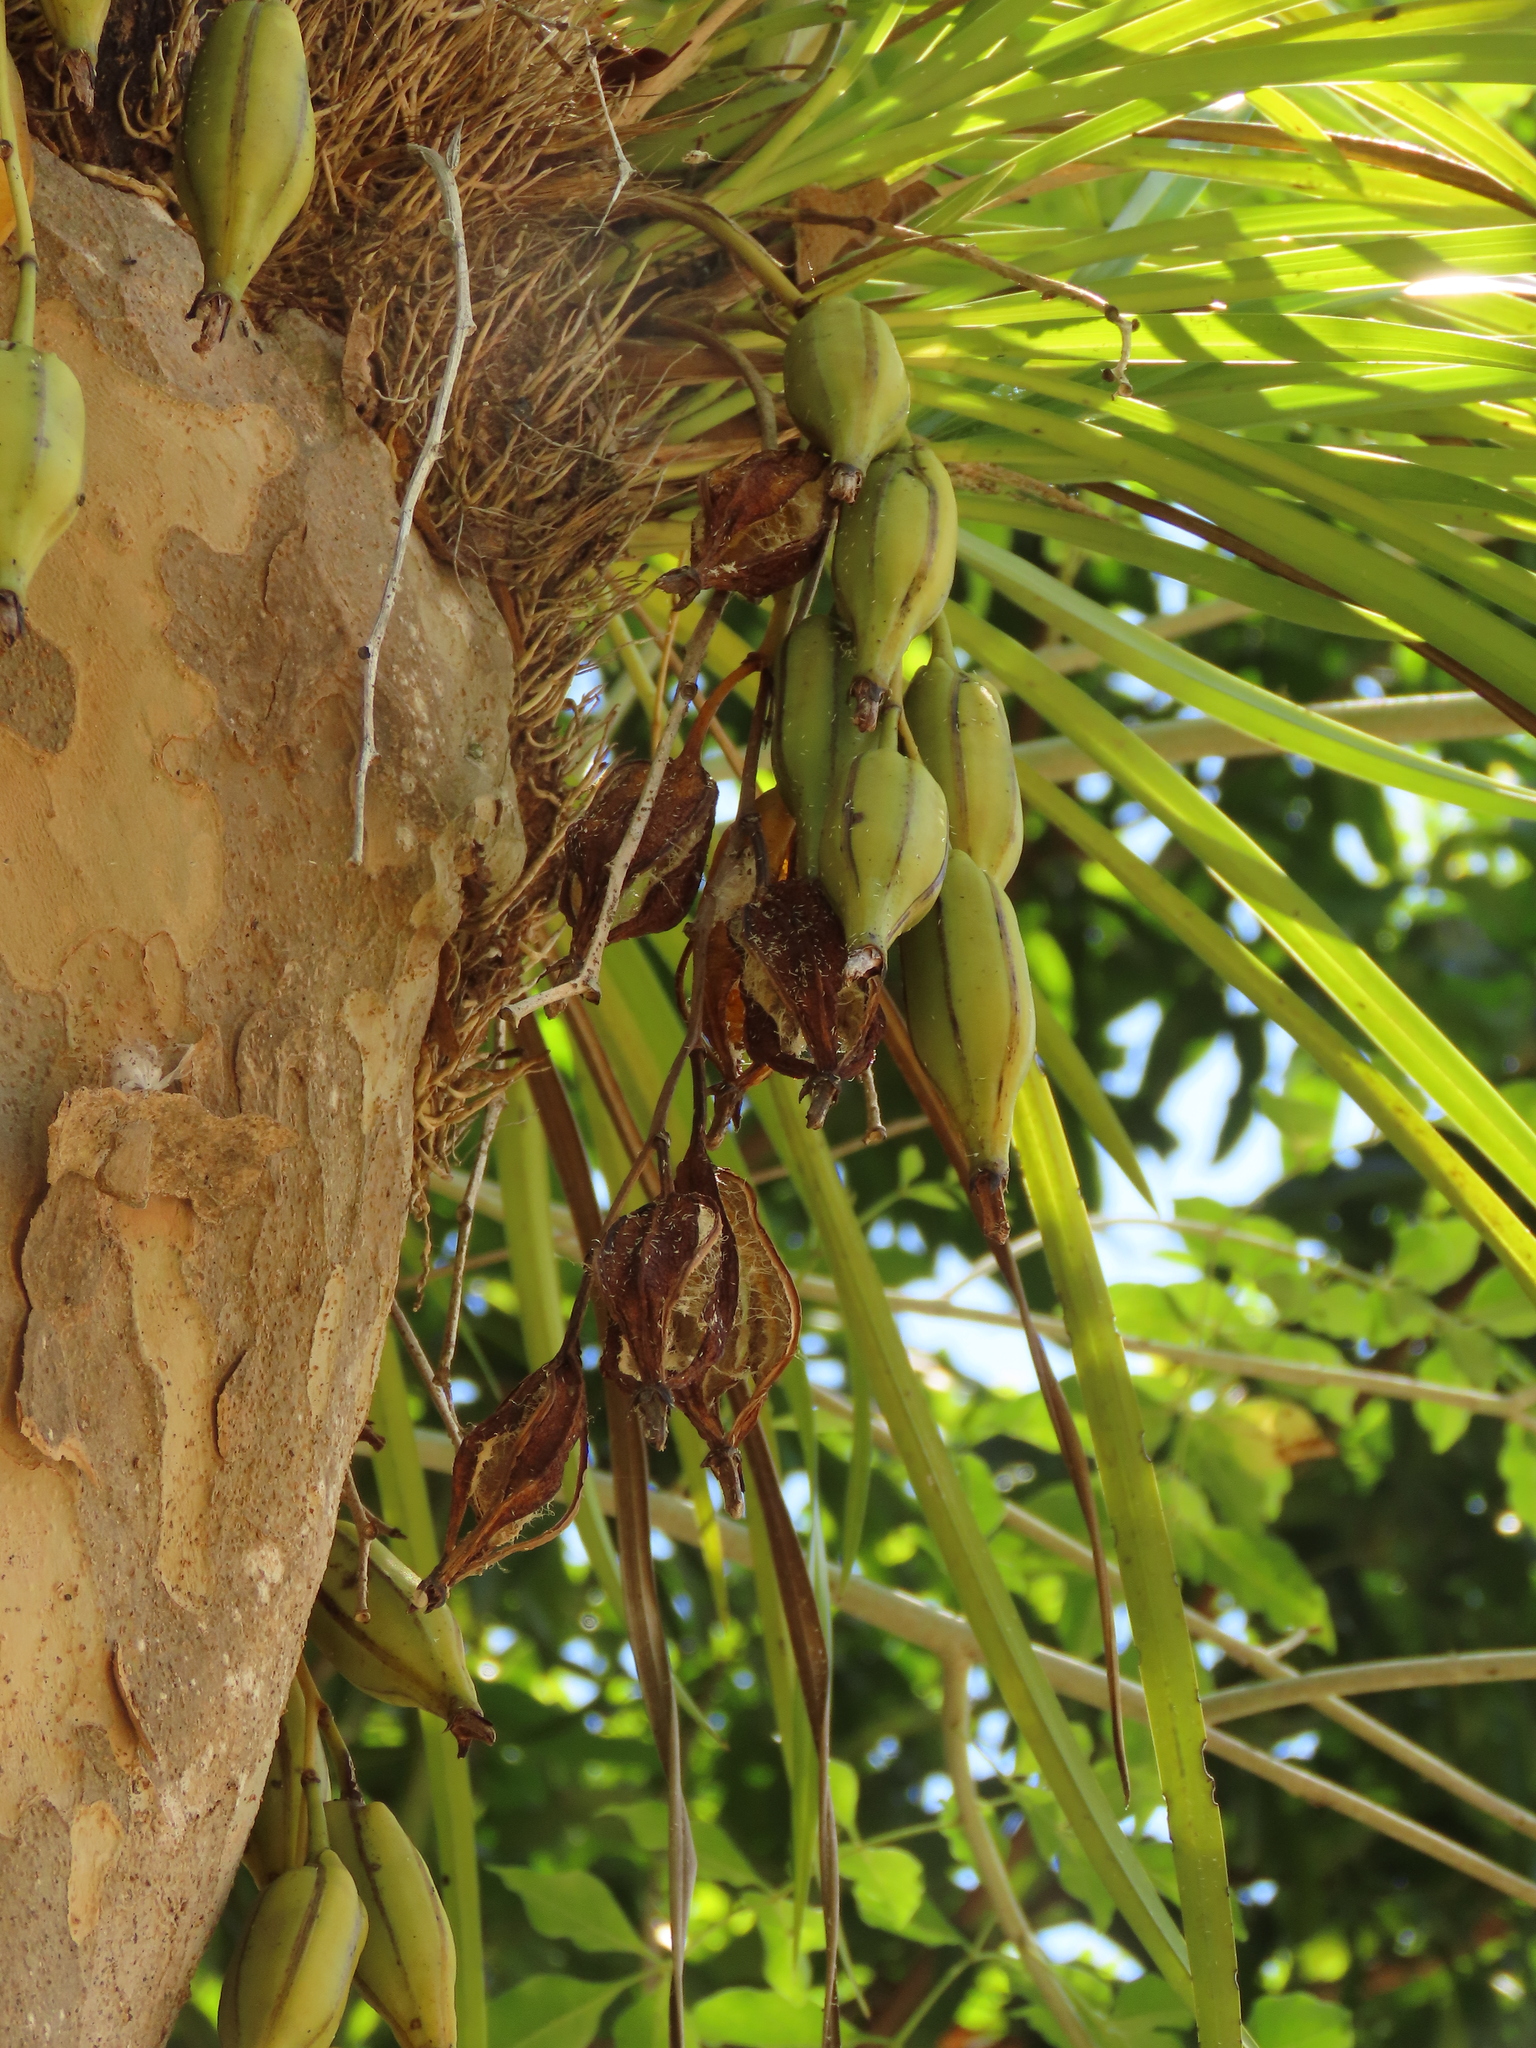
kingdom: Plantae
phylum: Tracheophyta
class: Liliopsida
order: Asparagales
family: Orchidaceae
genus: Cymbidium
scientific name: Cymbidium dayanum
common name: Orchid
